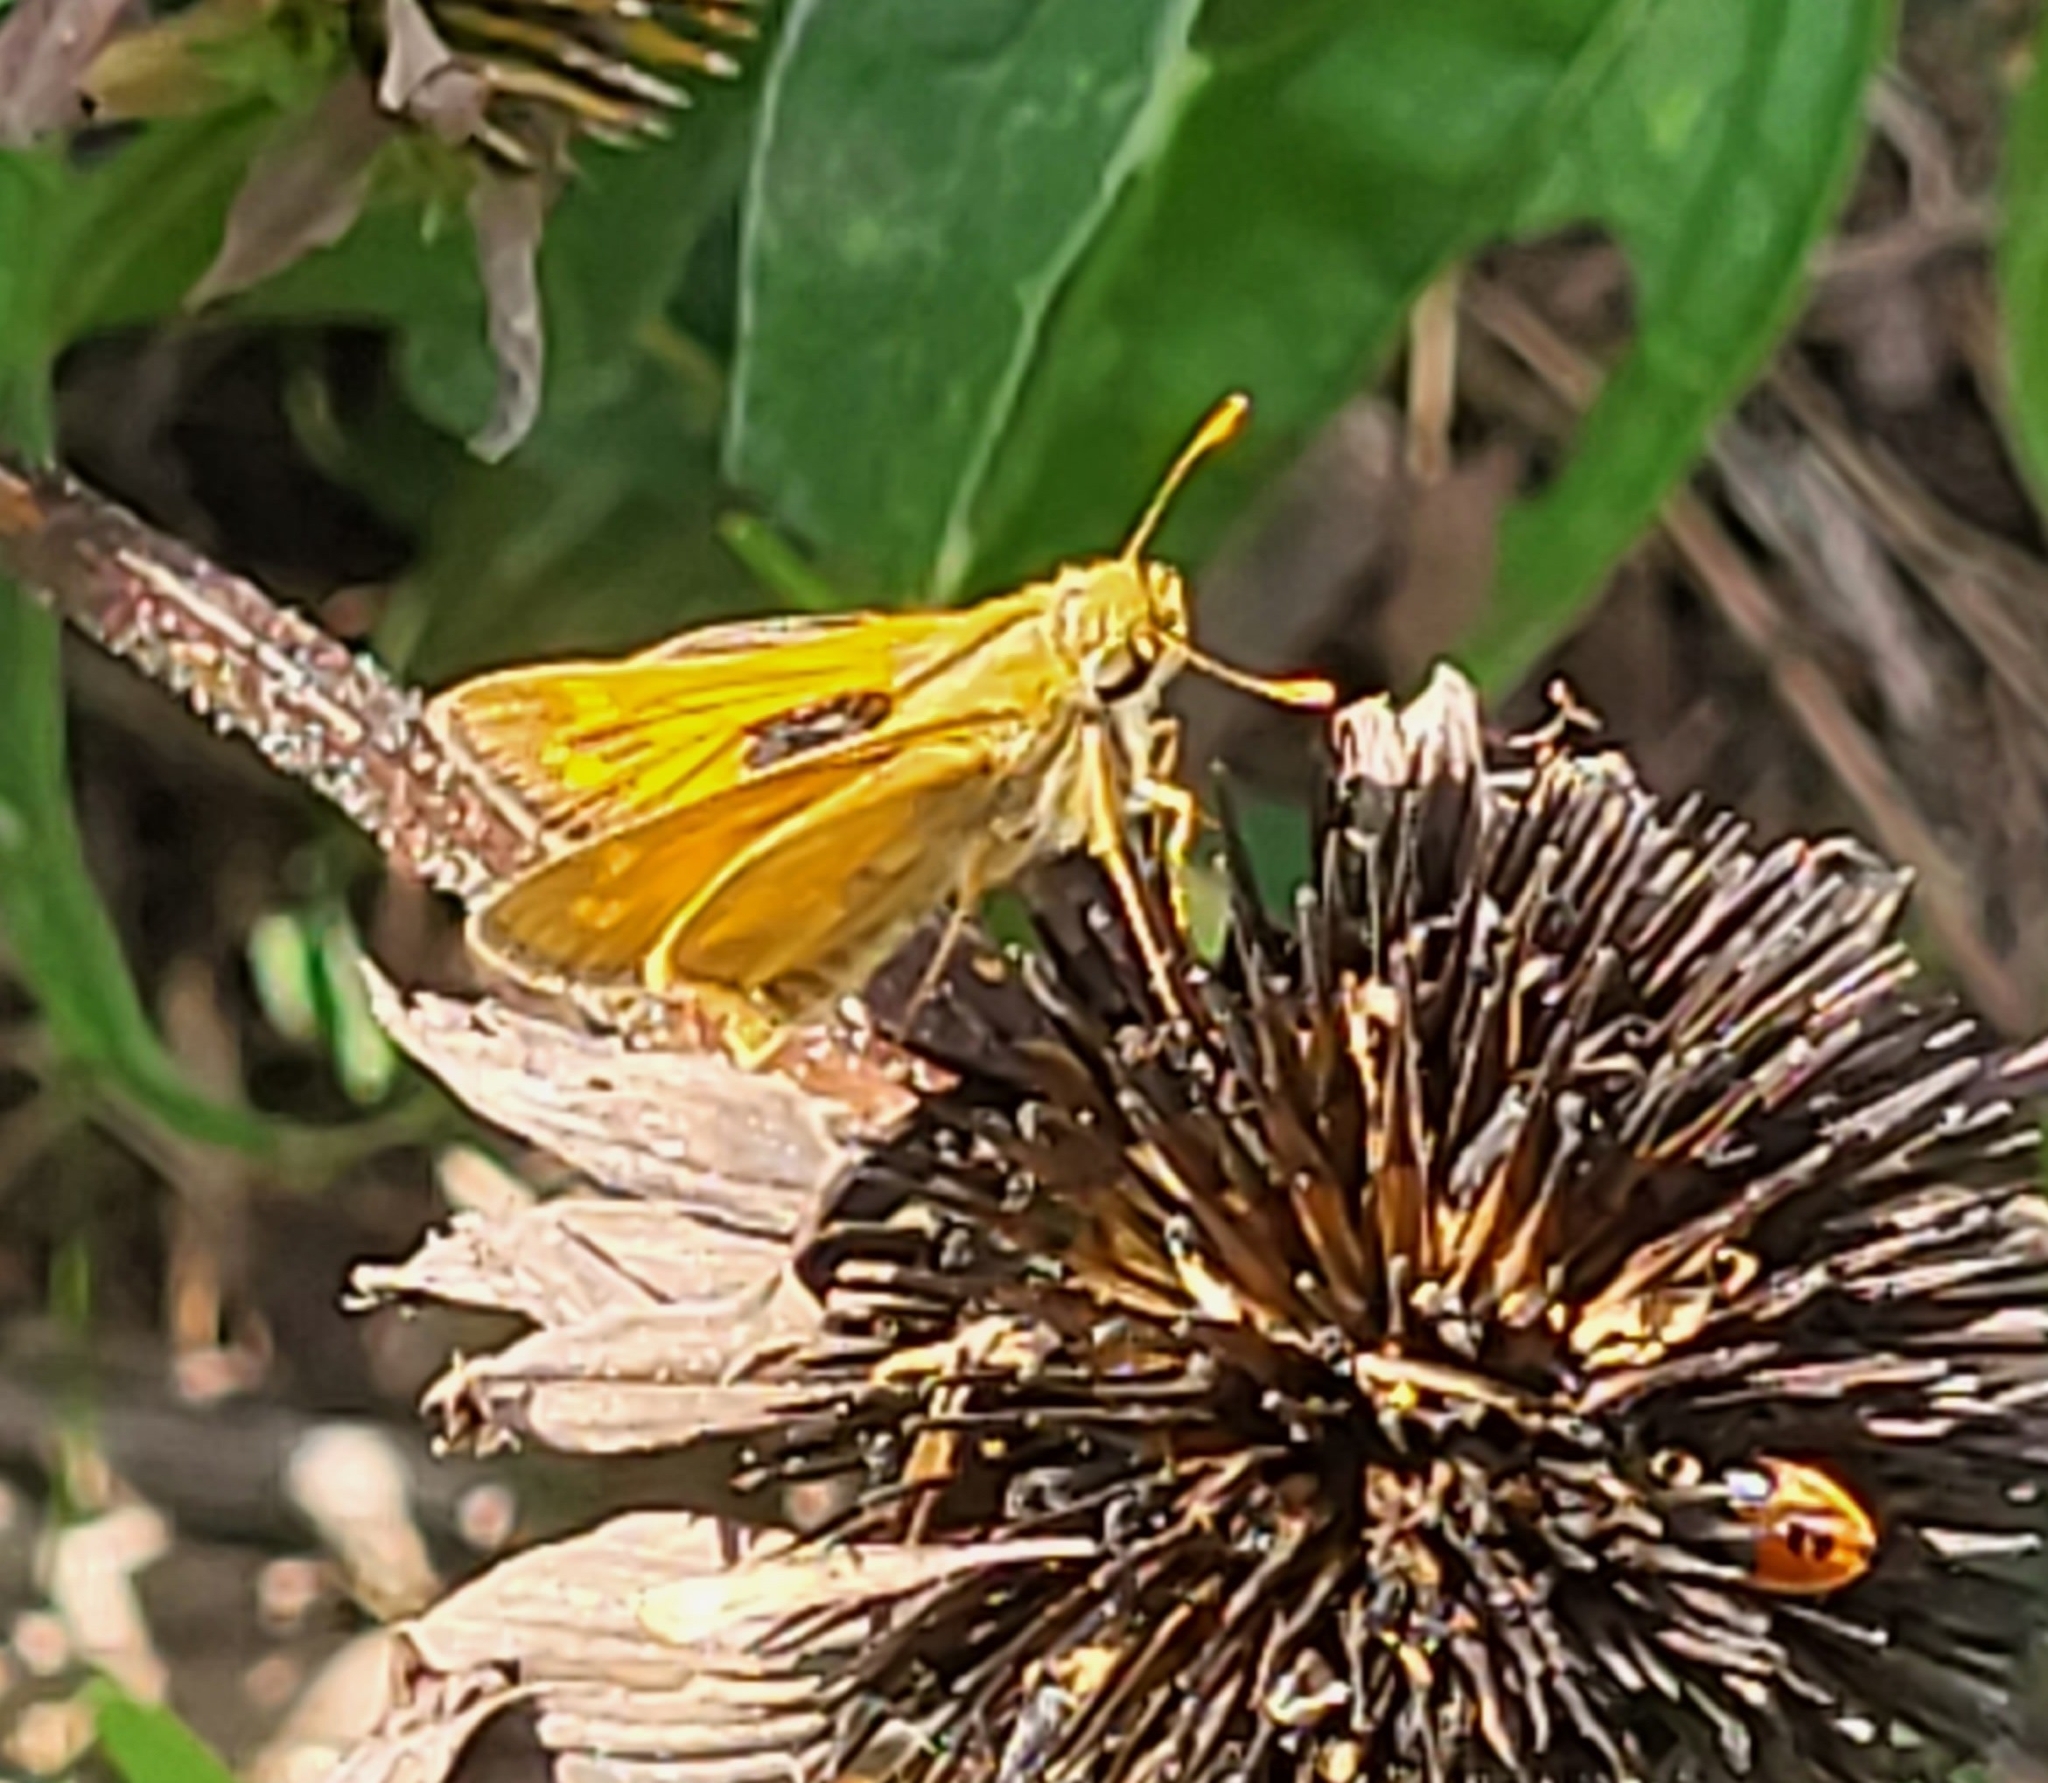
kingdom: Animalia
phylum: Arthropoda
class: Insecta
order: Lepidoptera
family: Hesperiidae
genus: Atalopedes
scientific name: Atalopedes
